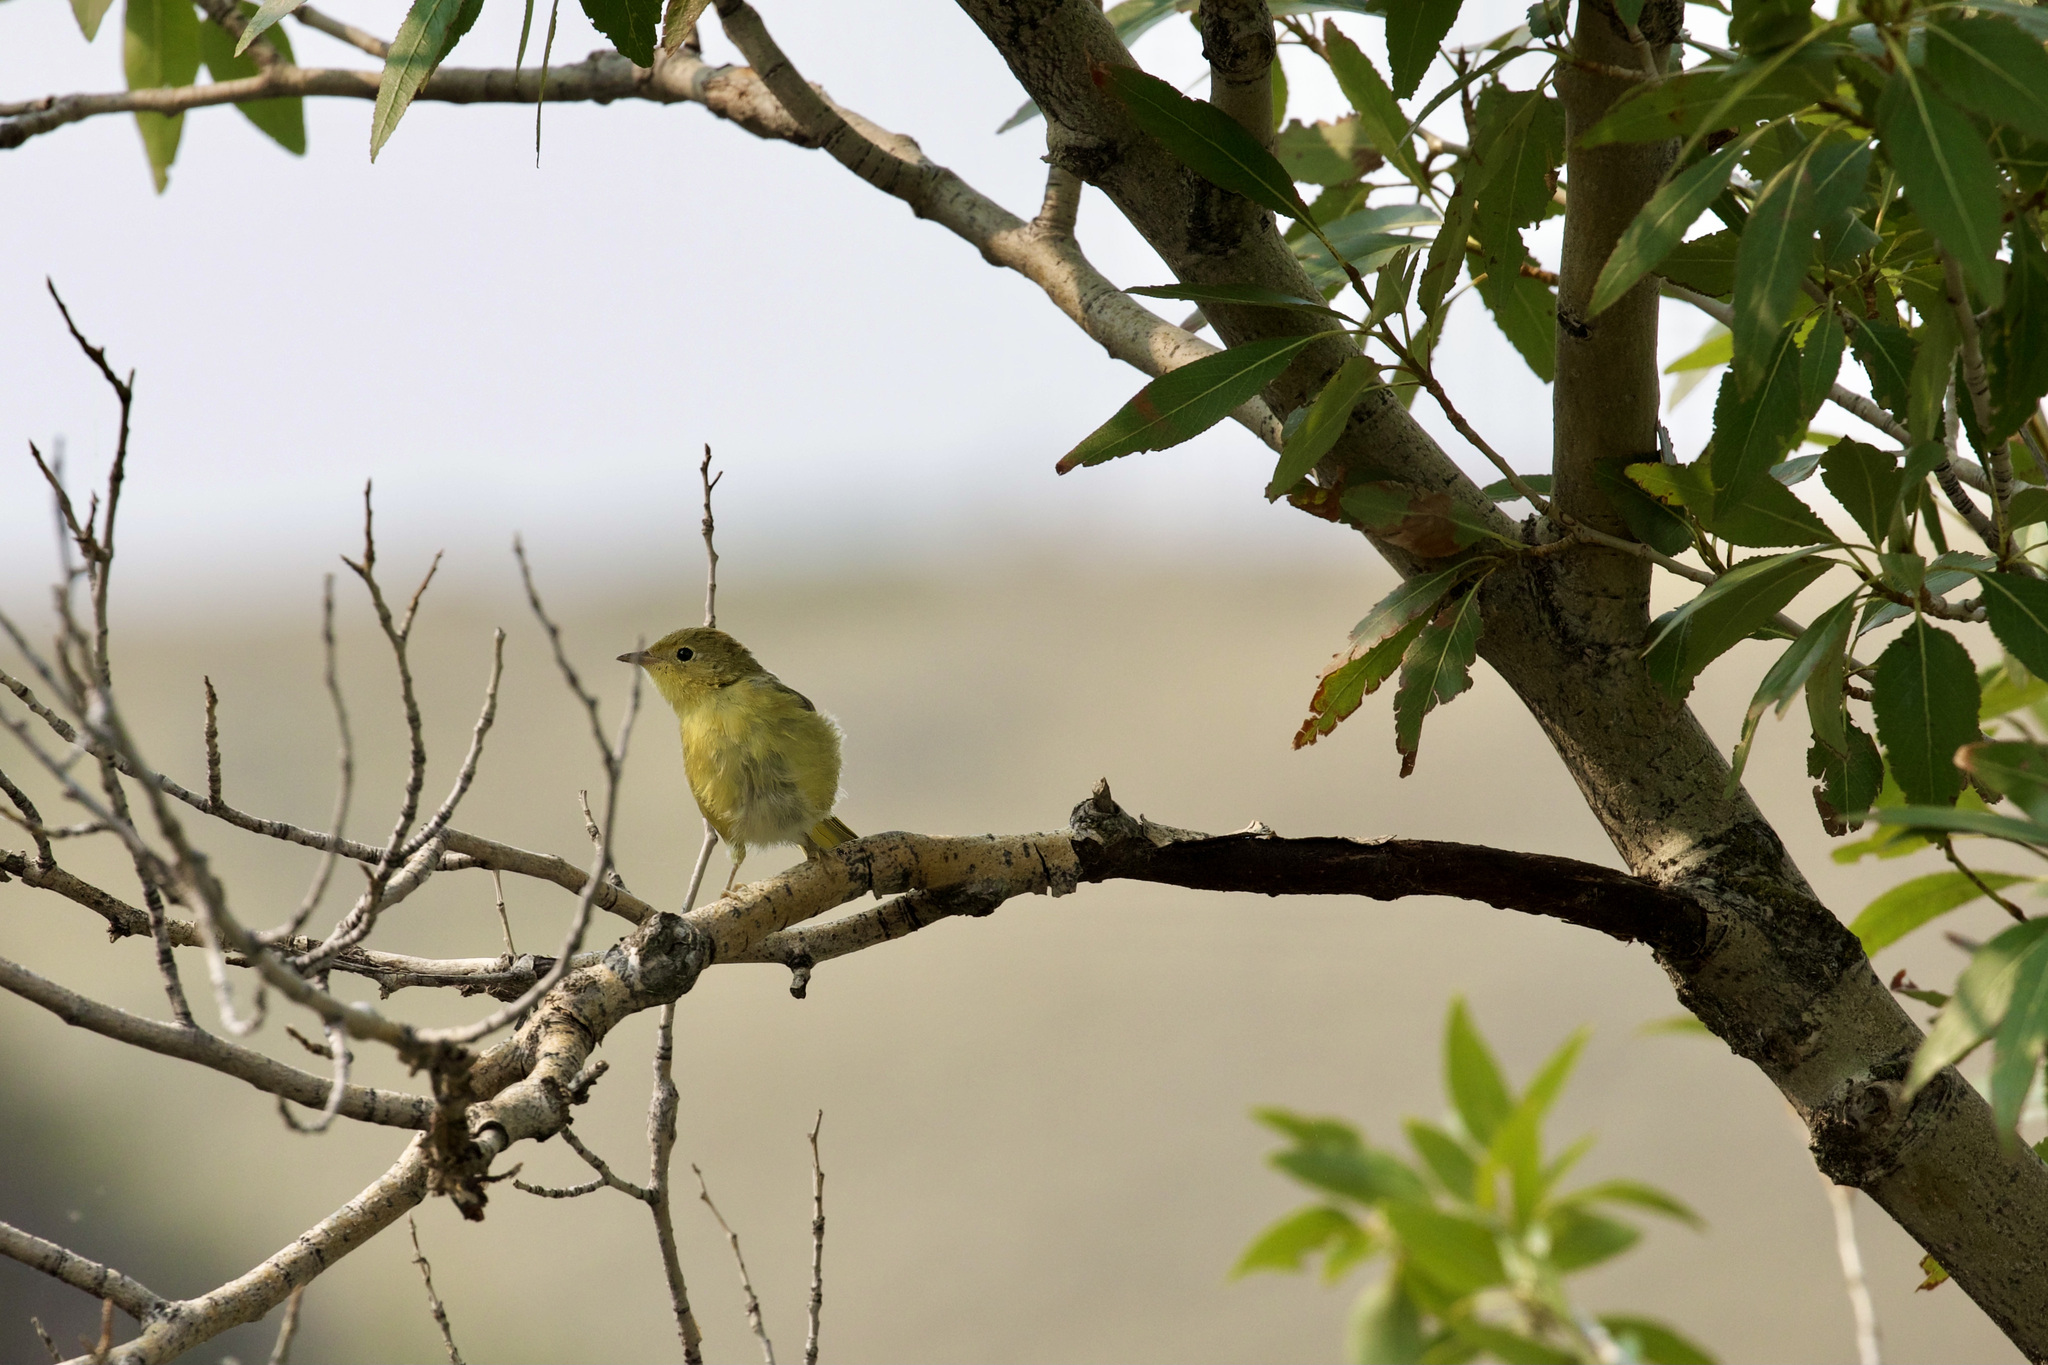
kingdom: Animalia
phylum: Chordata
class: Aves
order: Passeriformes
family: Parulidae
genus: Setophaga
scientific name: Setophaga petechia
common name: Yellow warbler
